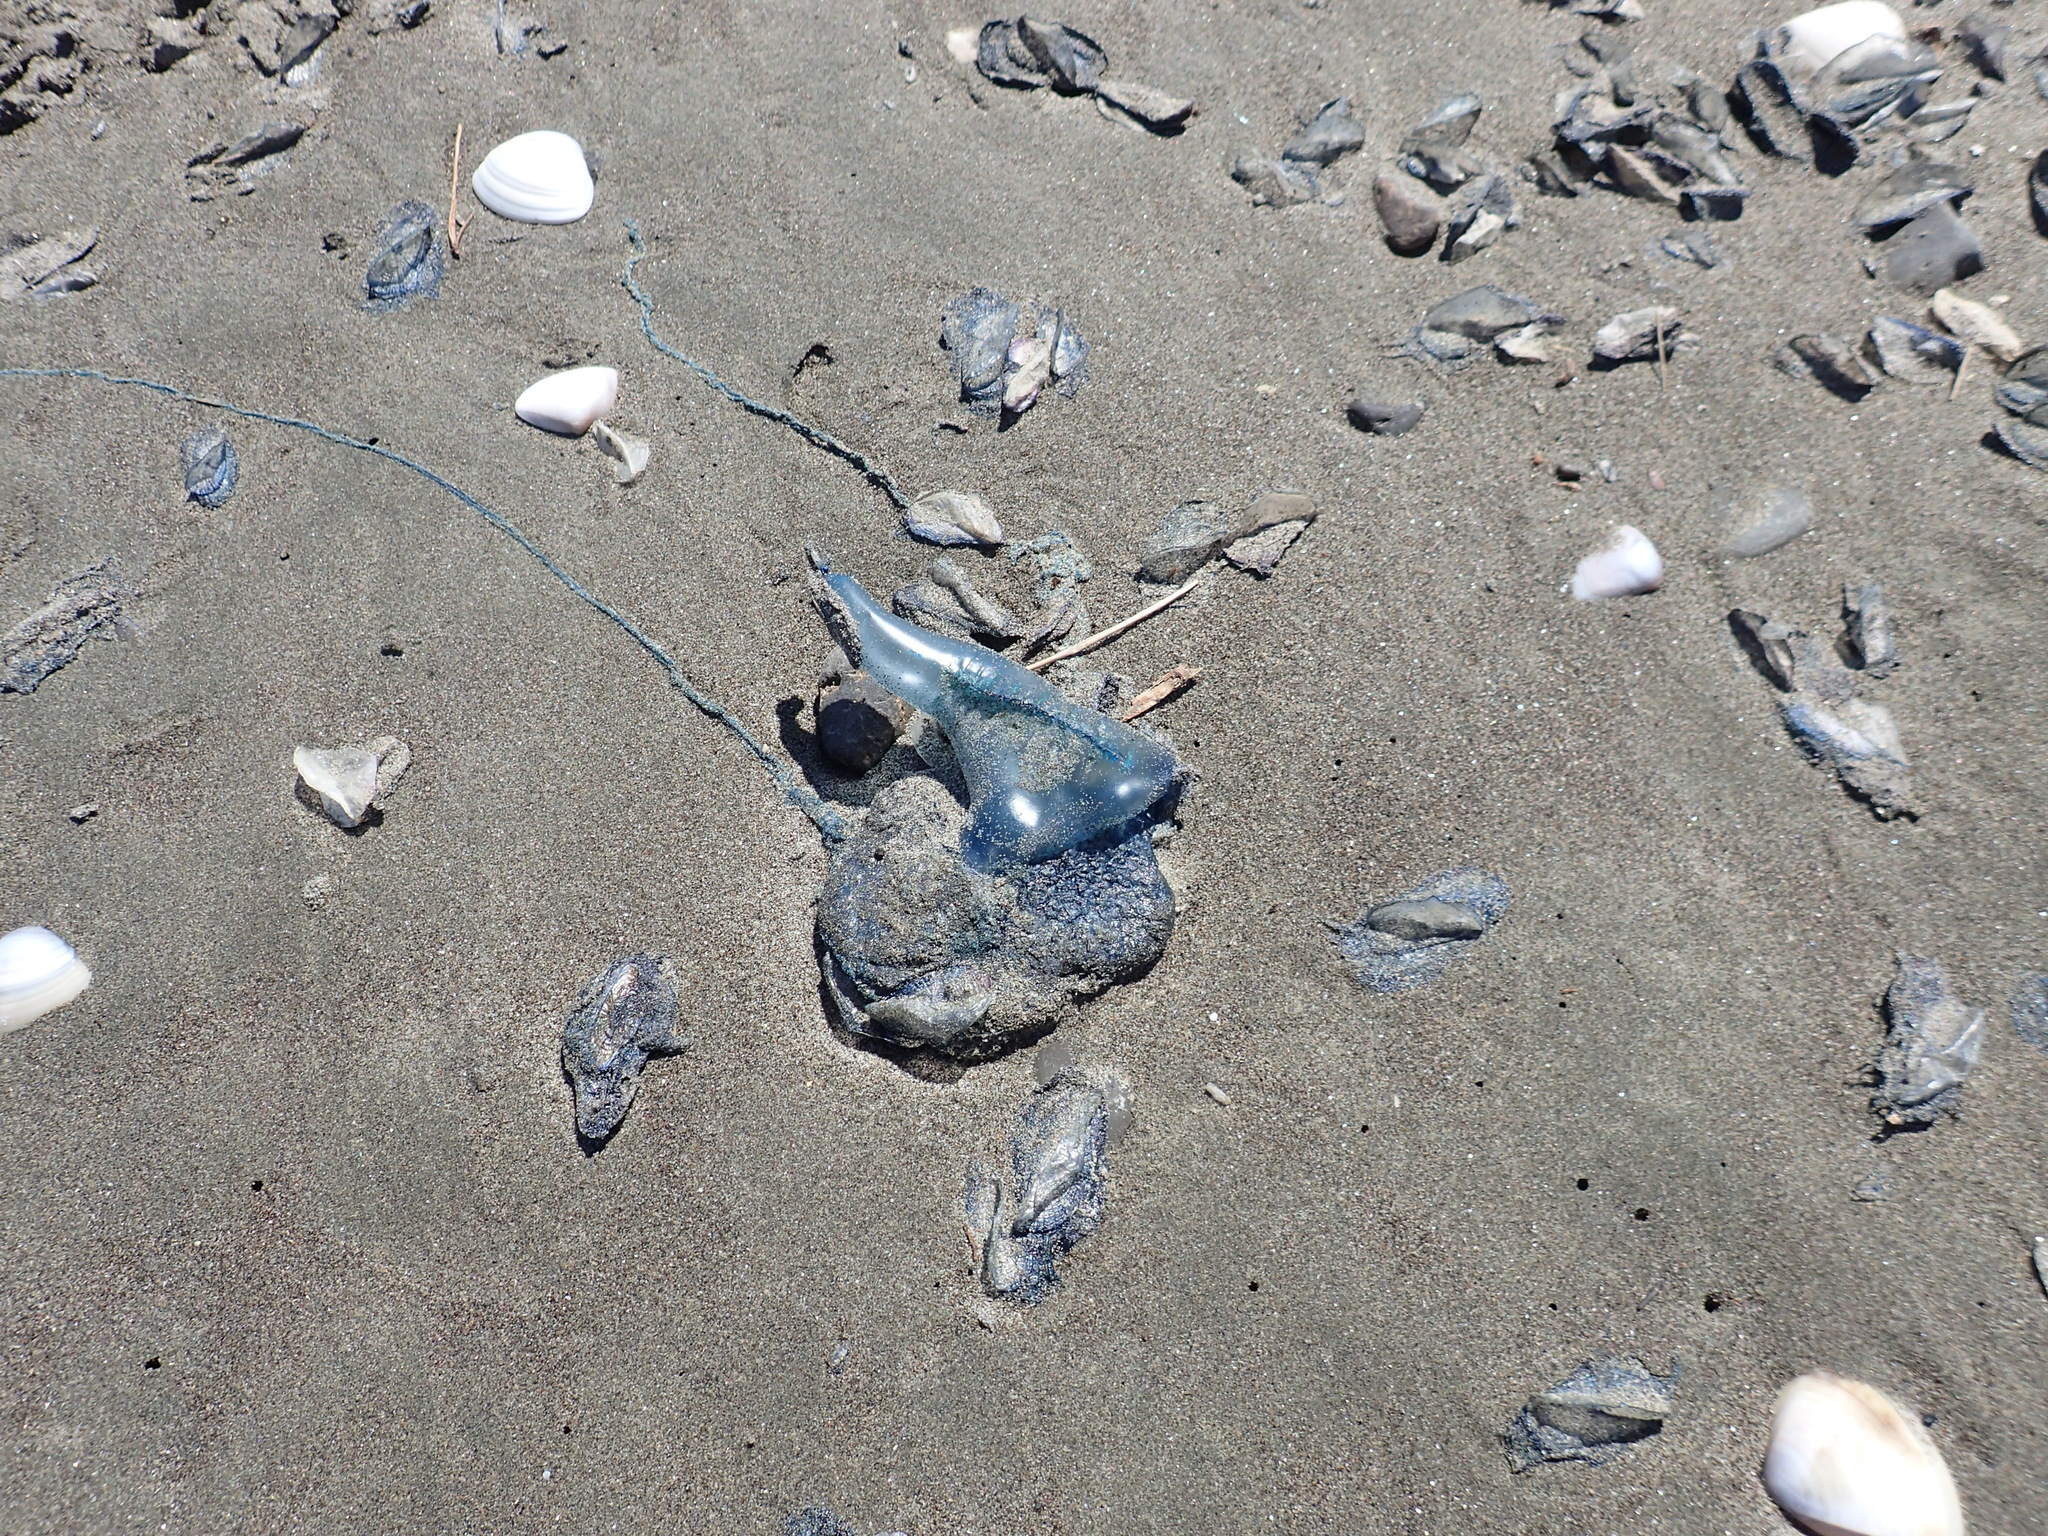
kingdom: Animalia
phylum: Cnidaria
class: Hydrozoa
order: Siphonophorae
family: Physaliidae
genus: Physalia
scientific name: Physalia physalis
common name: Portuguese man-of-war
